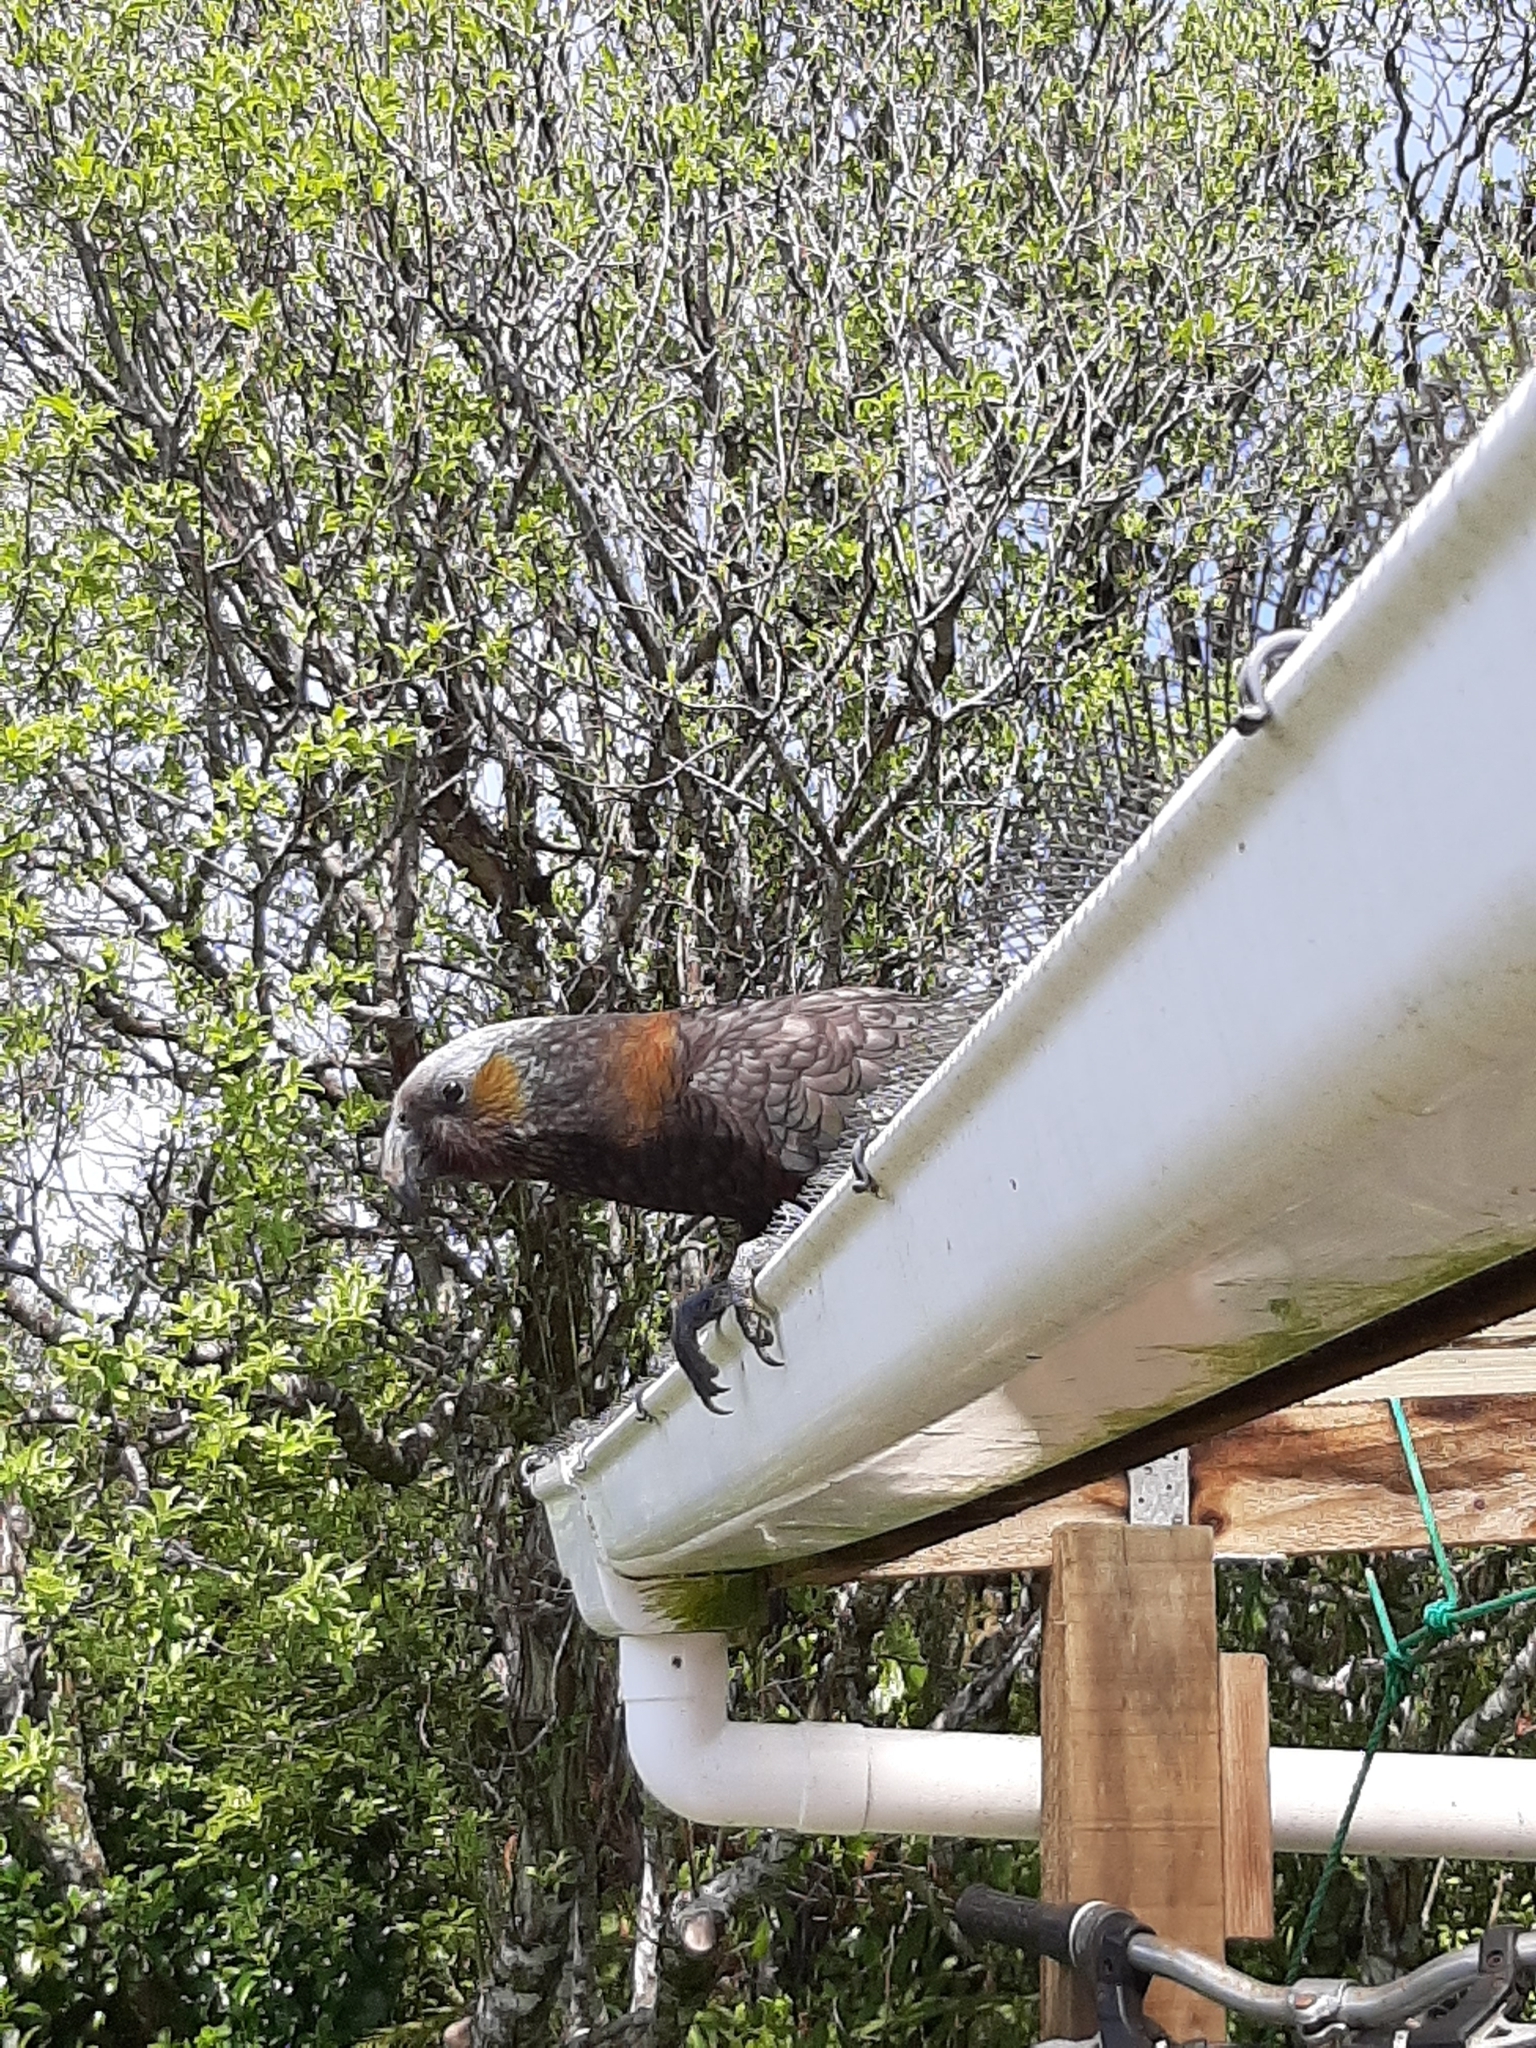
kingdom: Animalia
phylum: Chordata
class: Aves
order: Psittaciformes
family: Psittacidae
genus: Nestor
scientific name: Nestor meridionalis
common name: New zealand kaka
